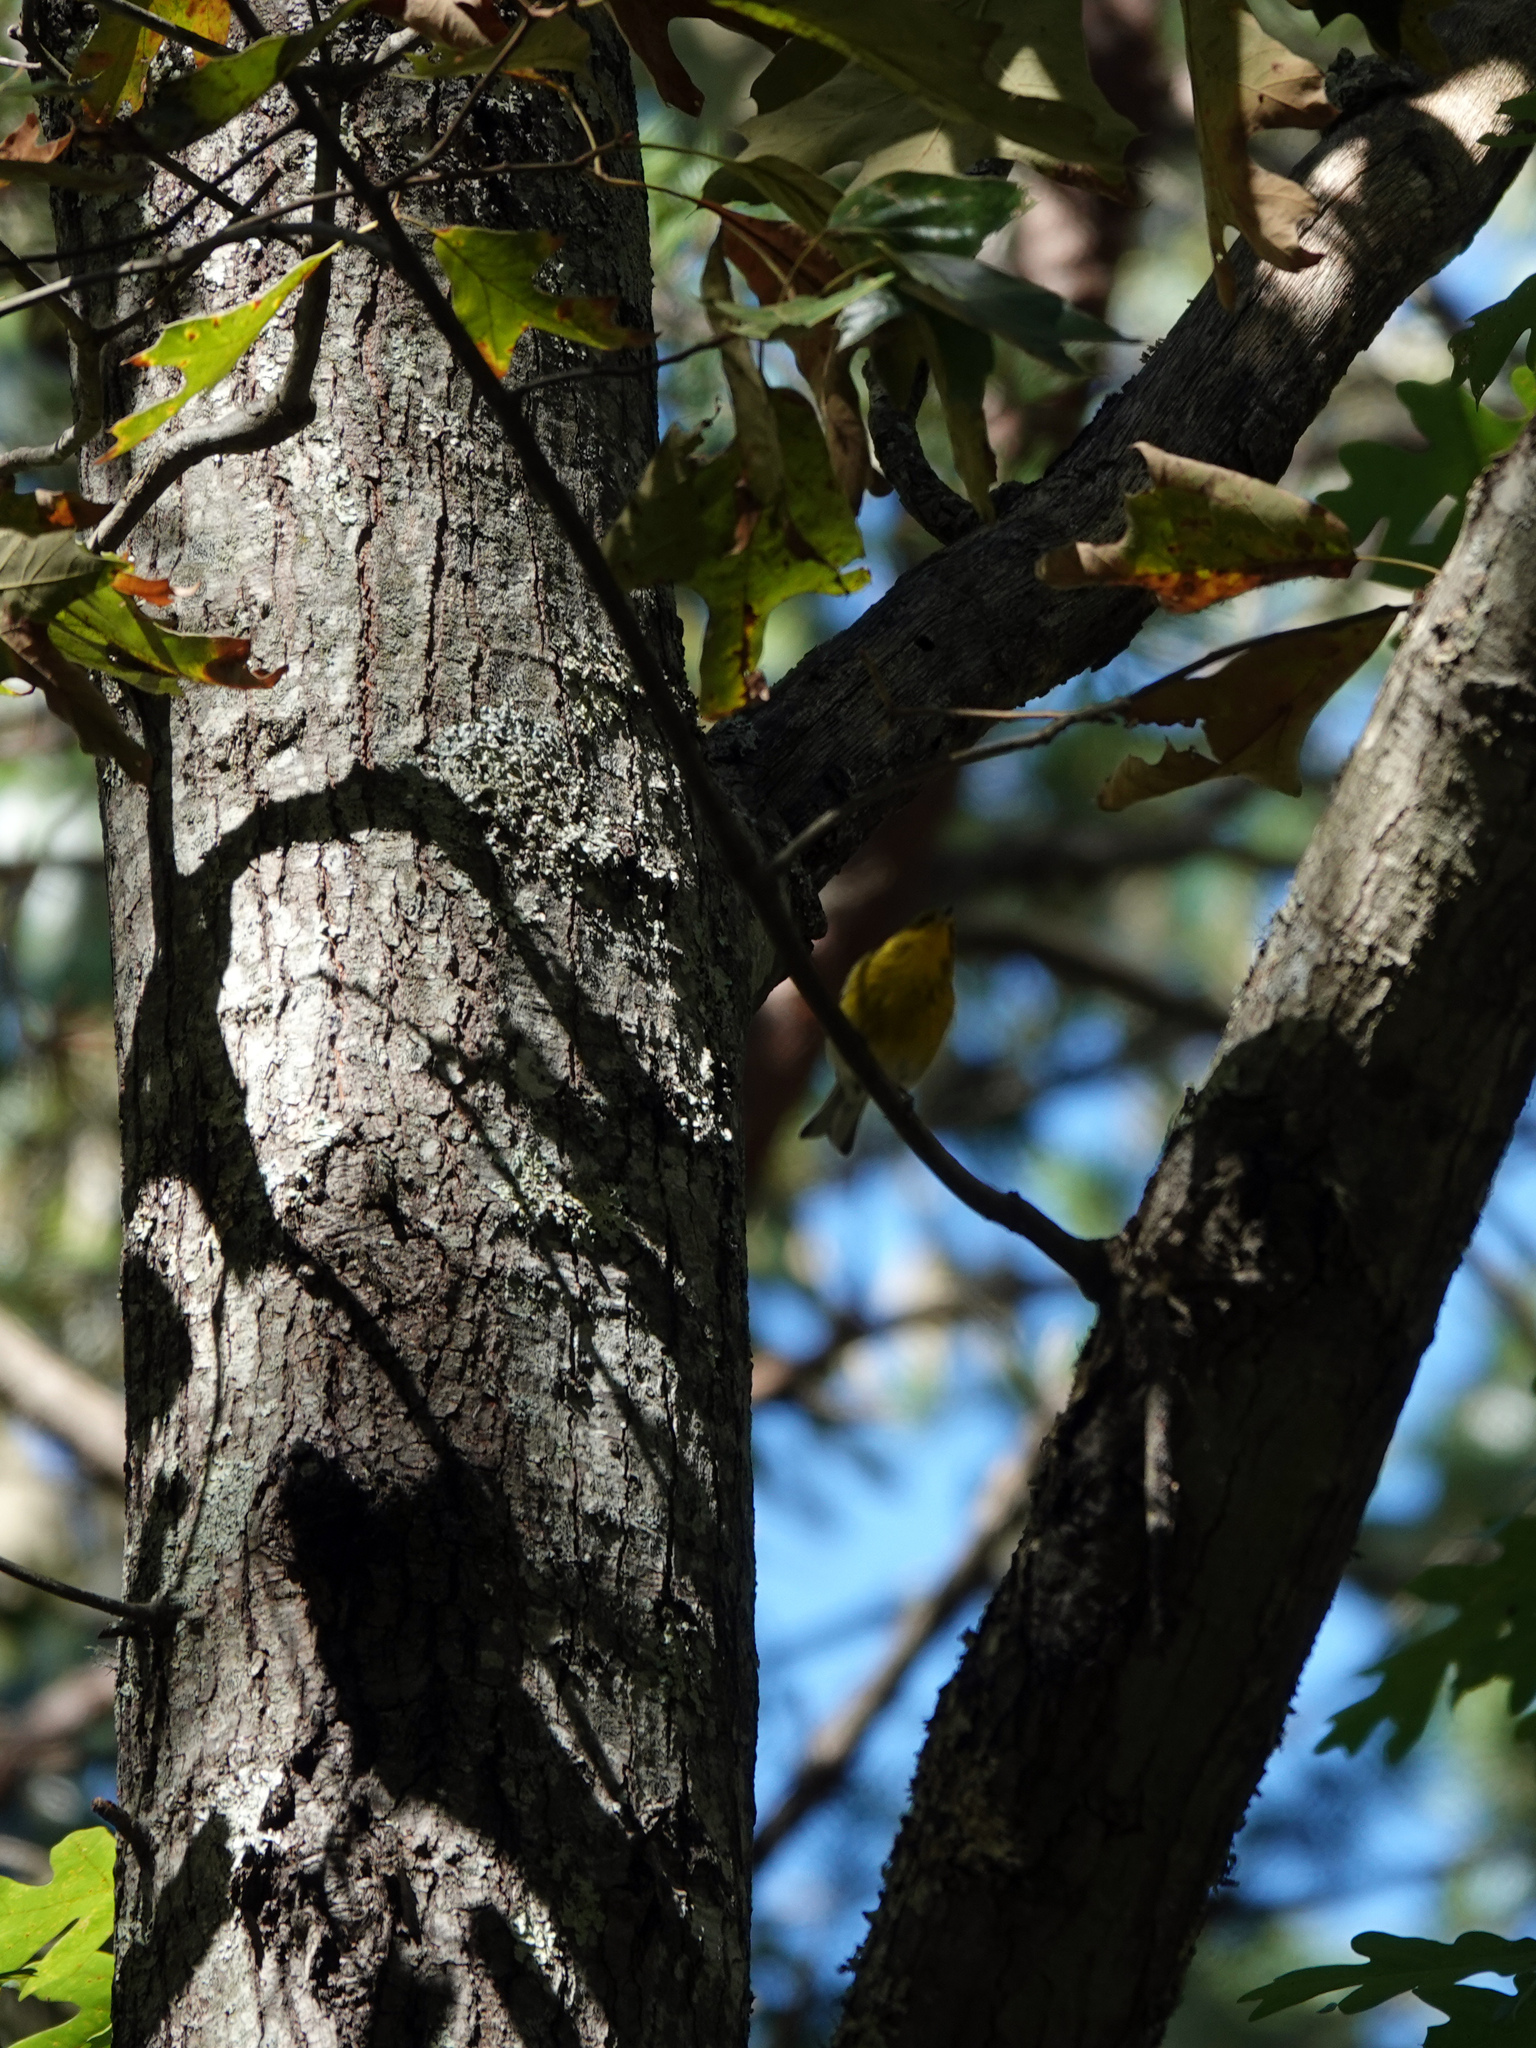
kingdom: Animalia
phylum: Chordata
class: Aves
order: Passeriformes
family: Parulidae
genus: Setophaga
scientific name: Setophaga pinus
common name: Pine warbler
